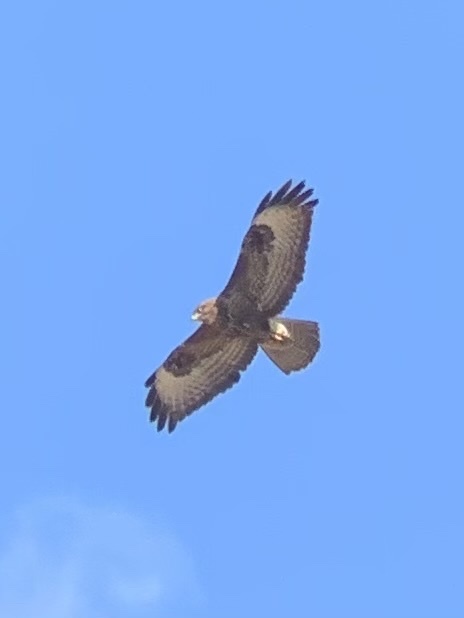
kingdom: Animalia
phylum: Chordata
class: Aves
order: Accipitriformes
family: Accipitridae
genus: Buteo
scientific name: Buteo buteo
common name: Common buzzard
